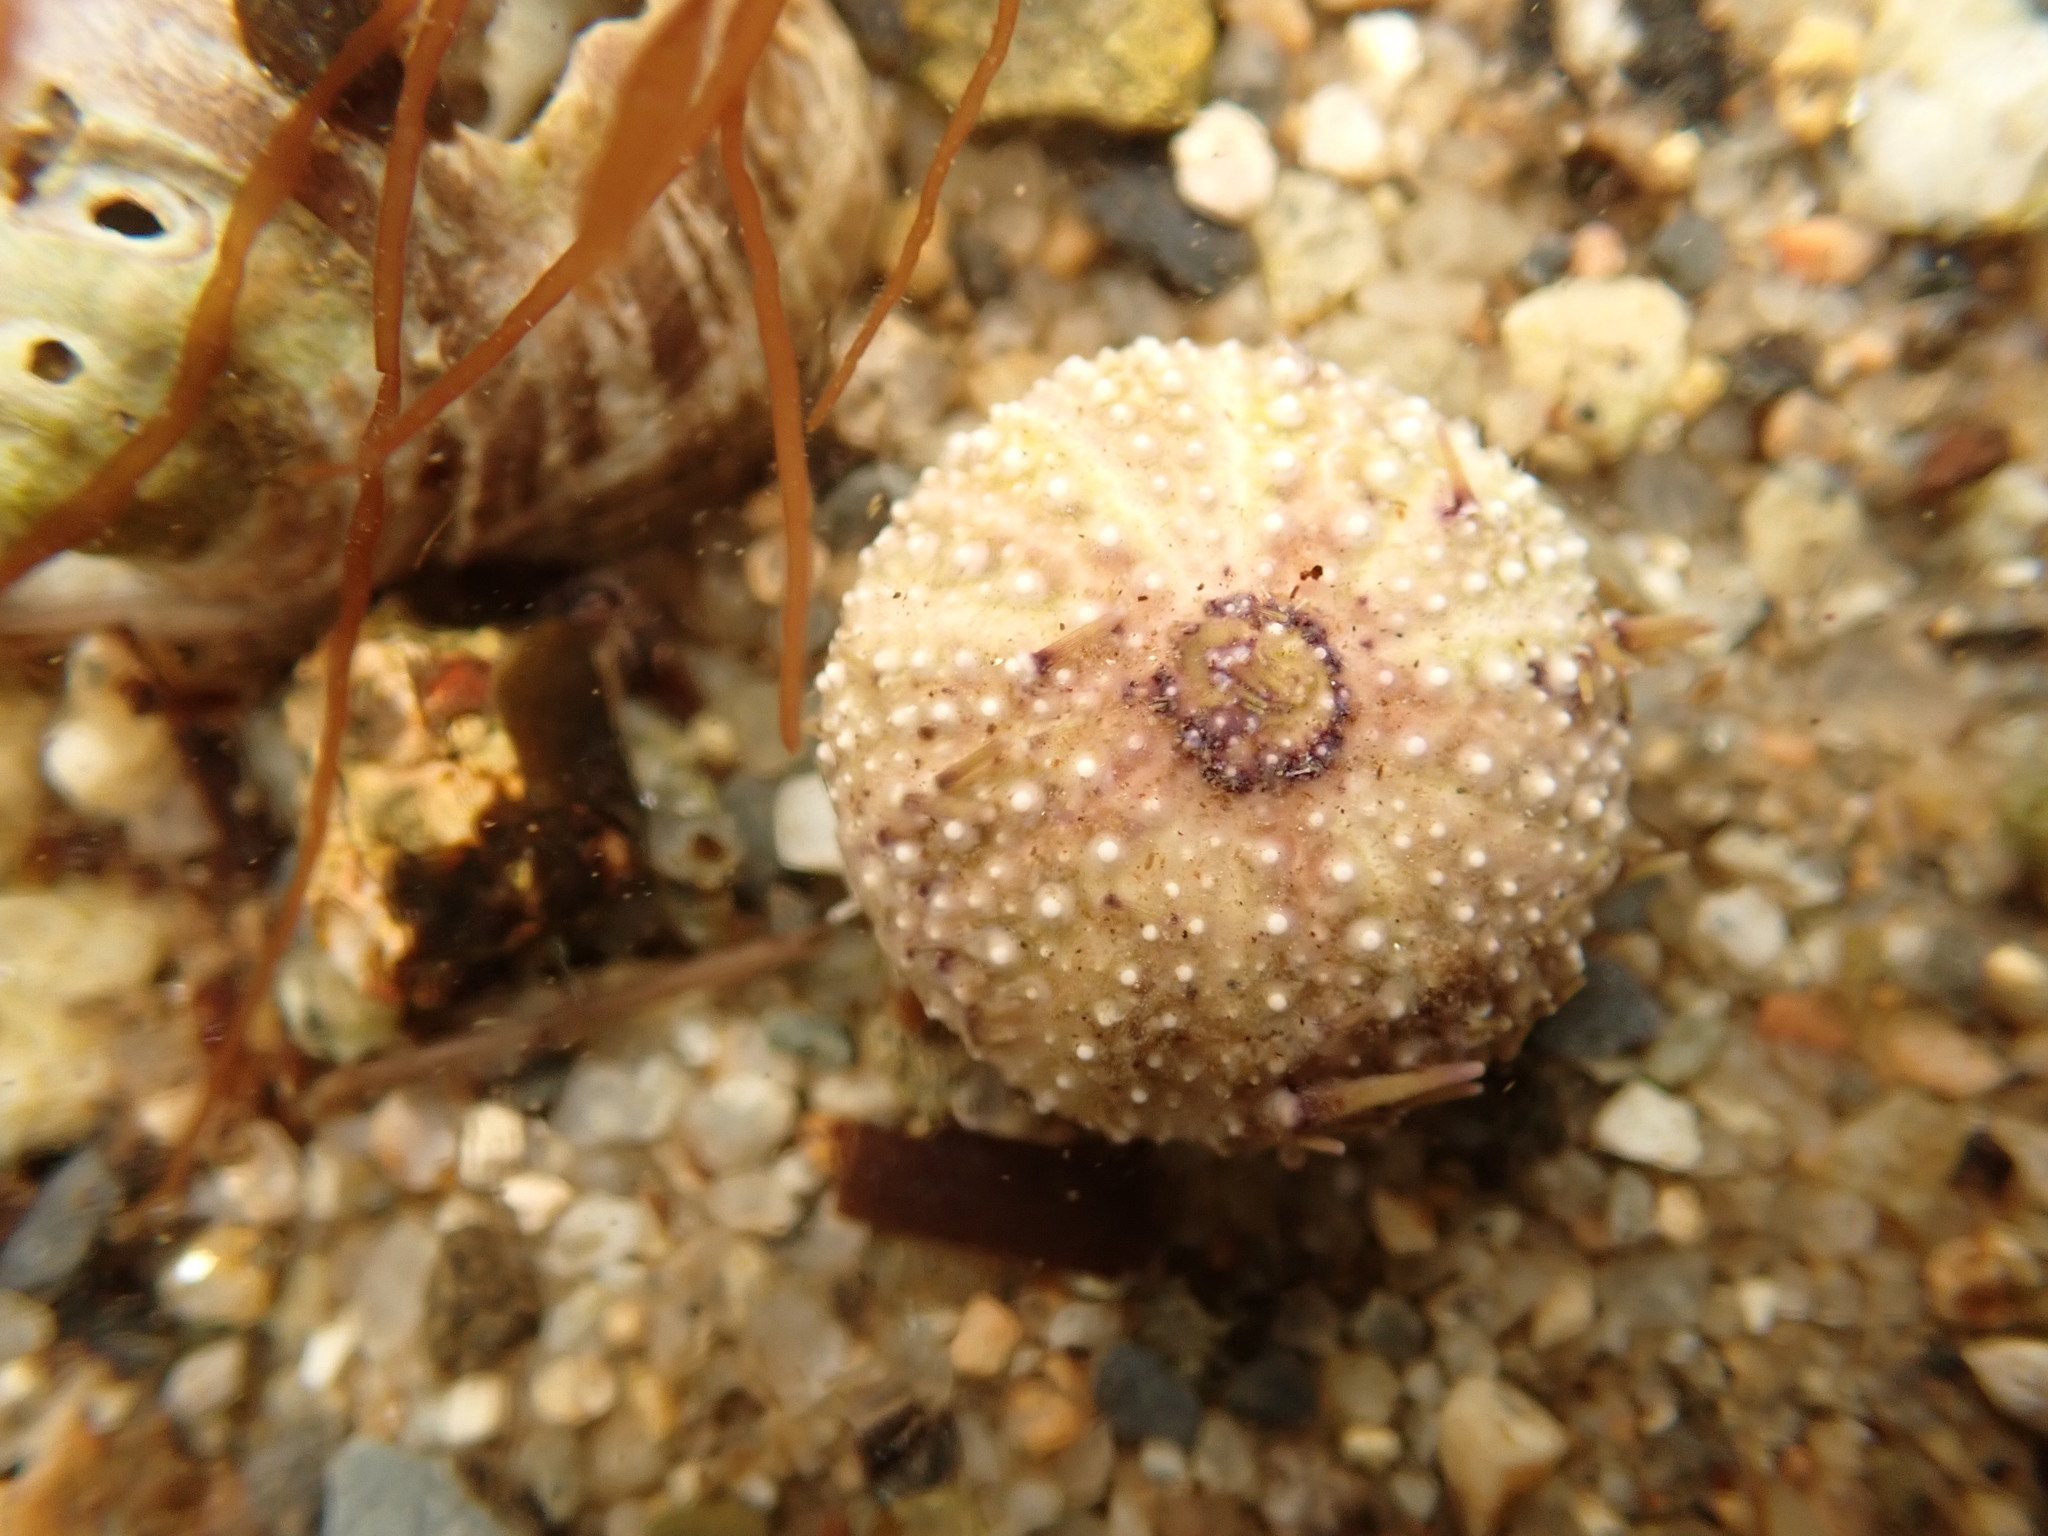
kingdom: Animalia
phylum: Echinodermata
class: Echinoidea
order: Camarodonta
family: Strongylocentrotidae
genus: Strongylocentrotus
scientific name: Strongylocentrotus droebachiensis
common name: Northern sea urchin
